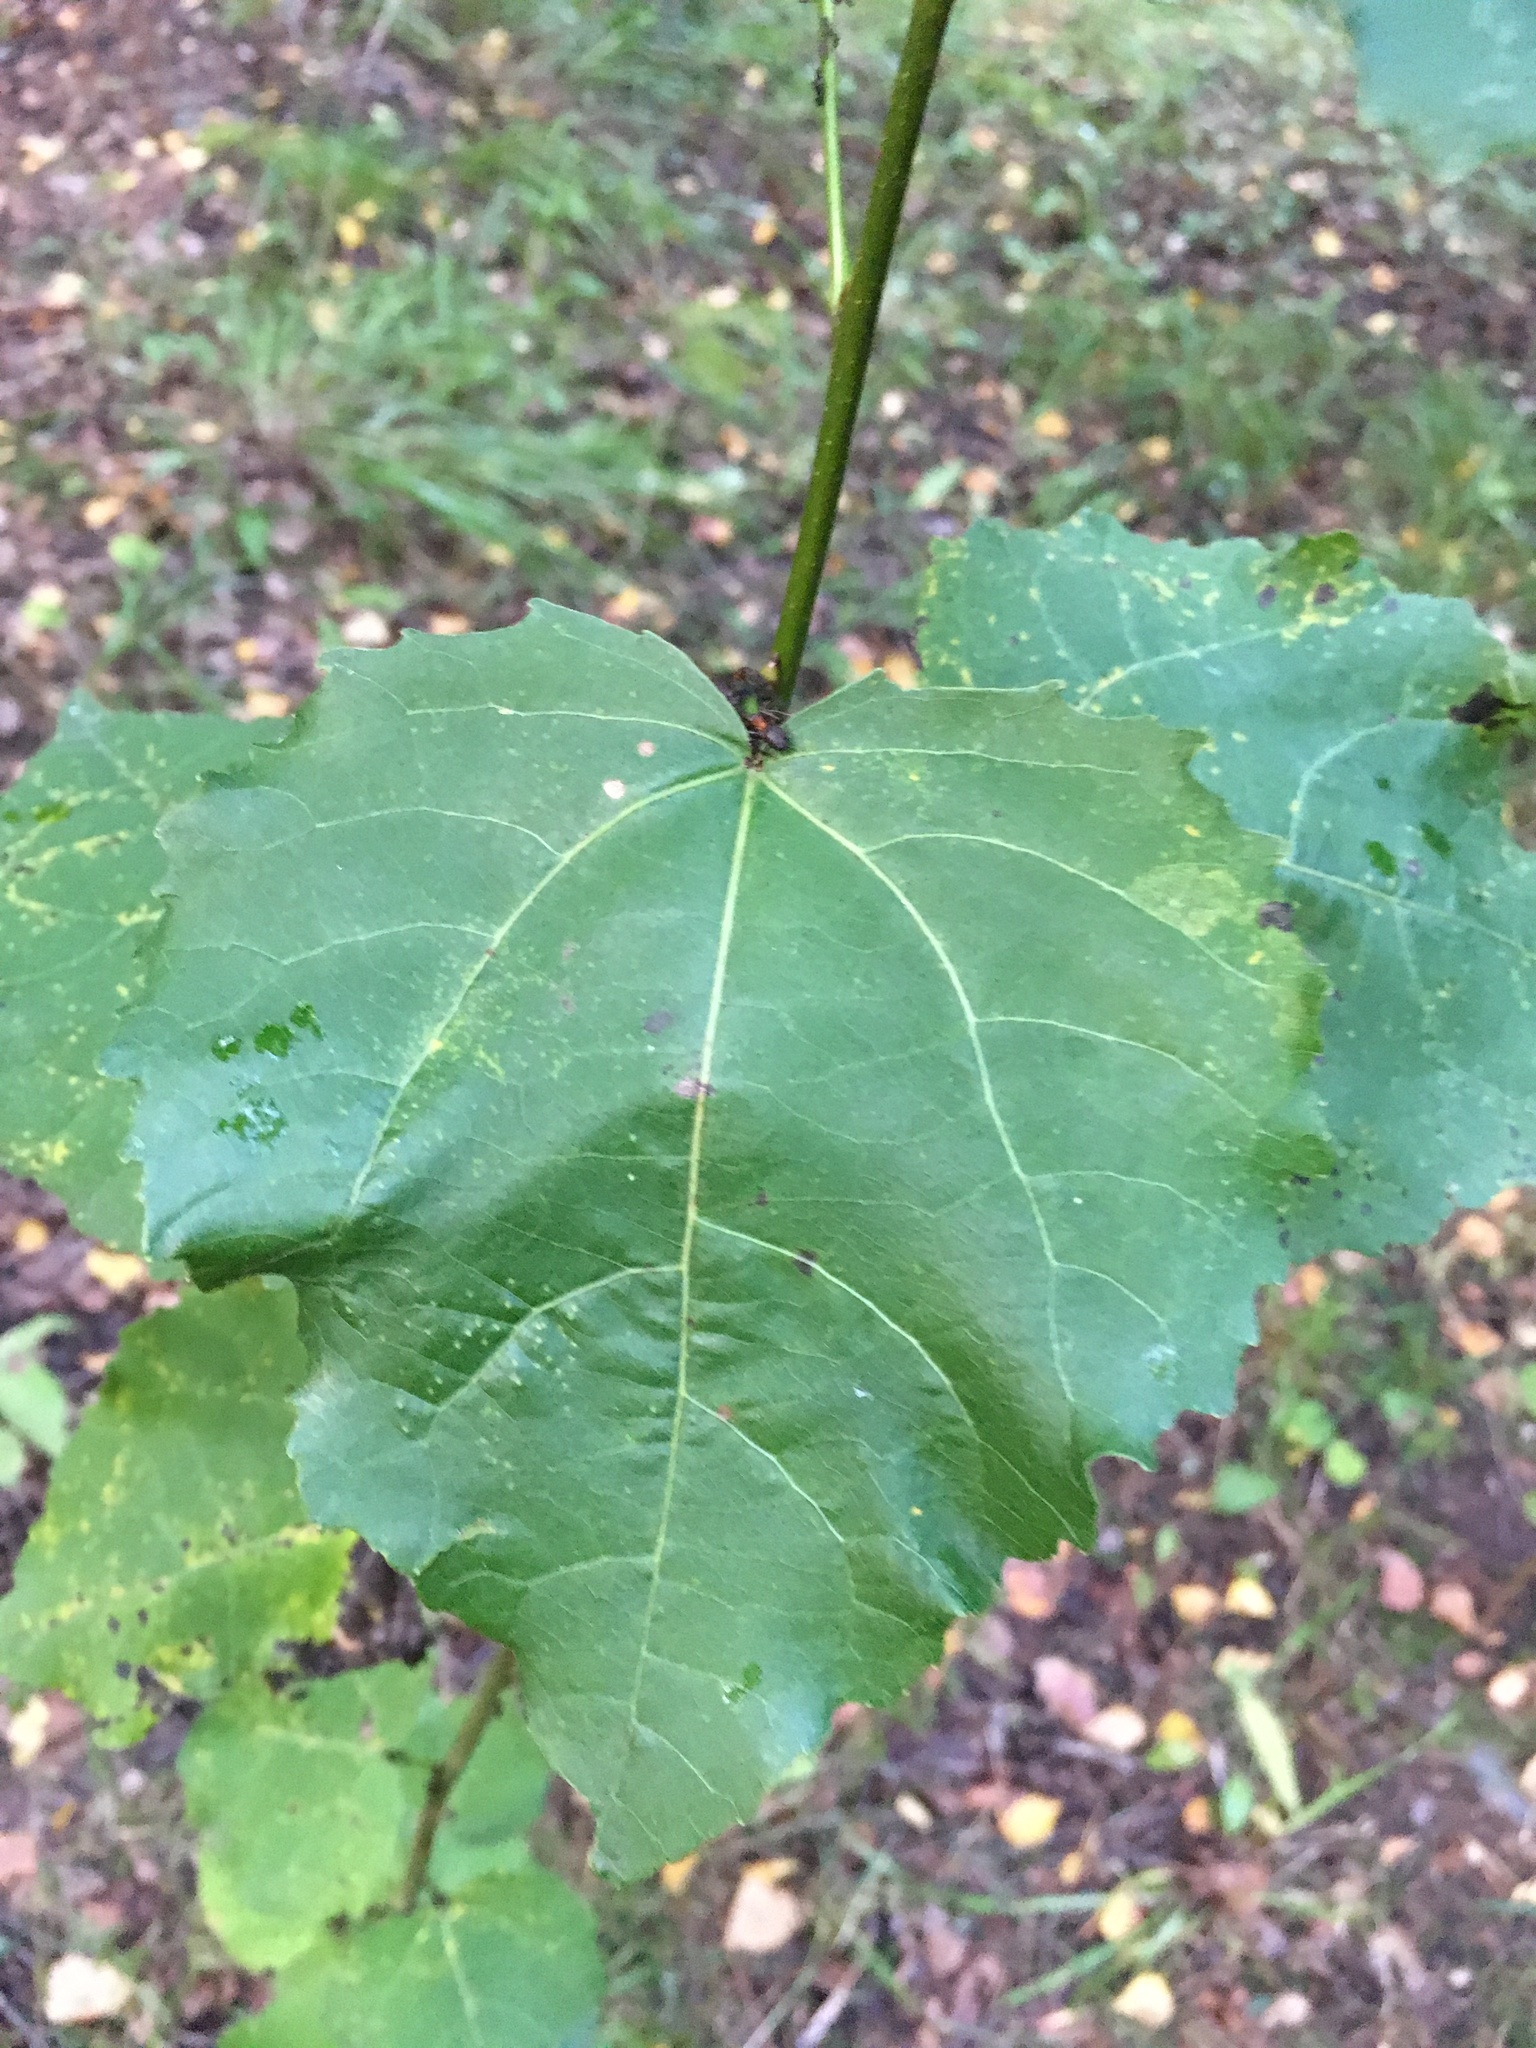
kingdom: Plantae
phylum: Tracheophyta
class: Magnoliopsida
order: Malpighiales
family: Salicaceae
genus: Populus
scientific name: Populus tremula
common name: European aspen
